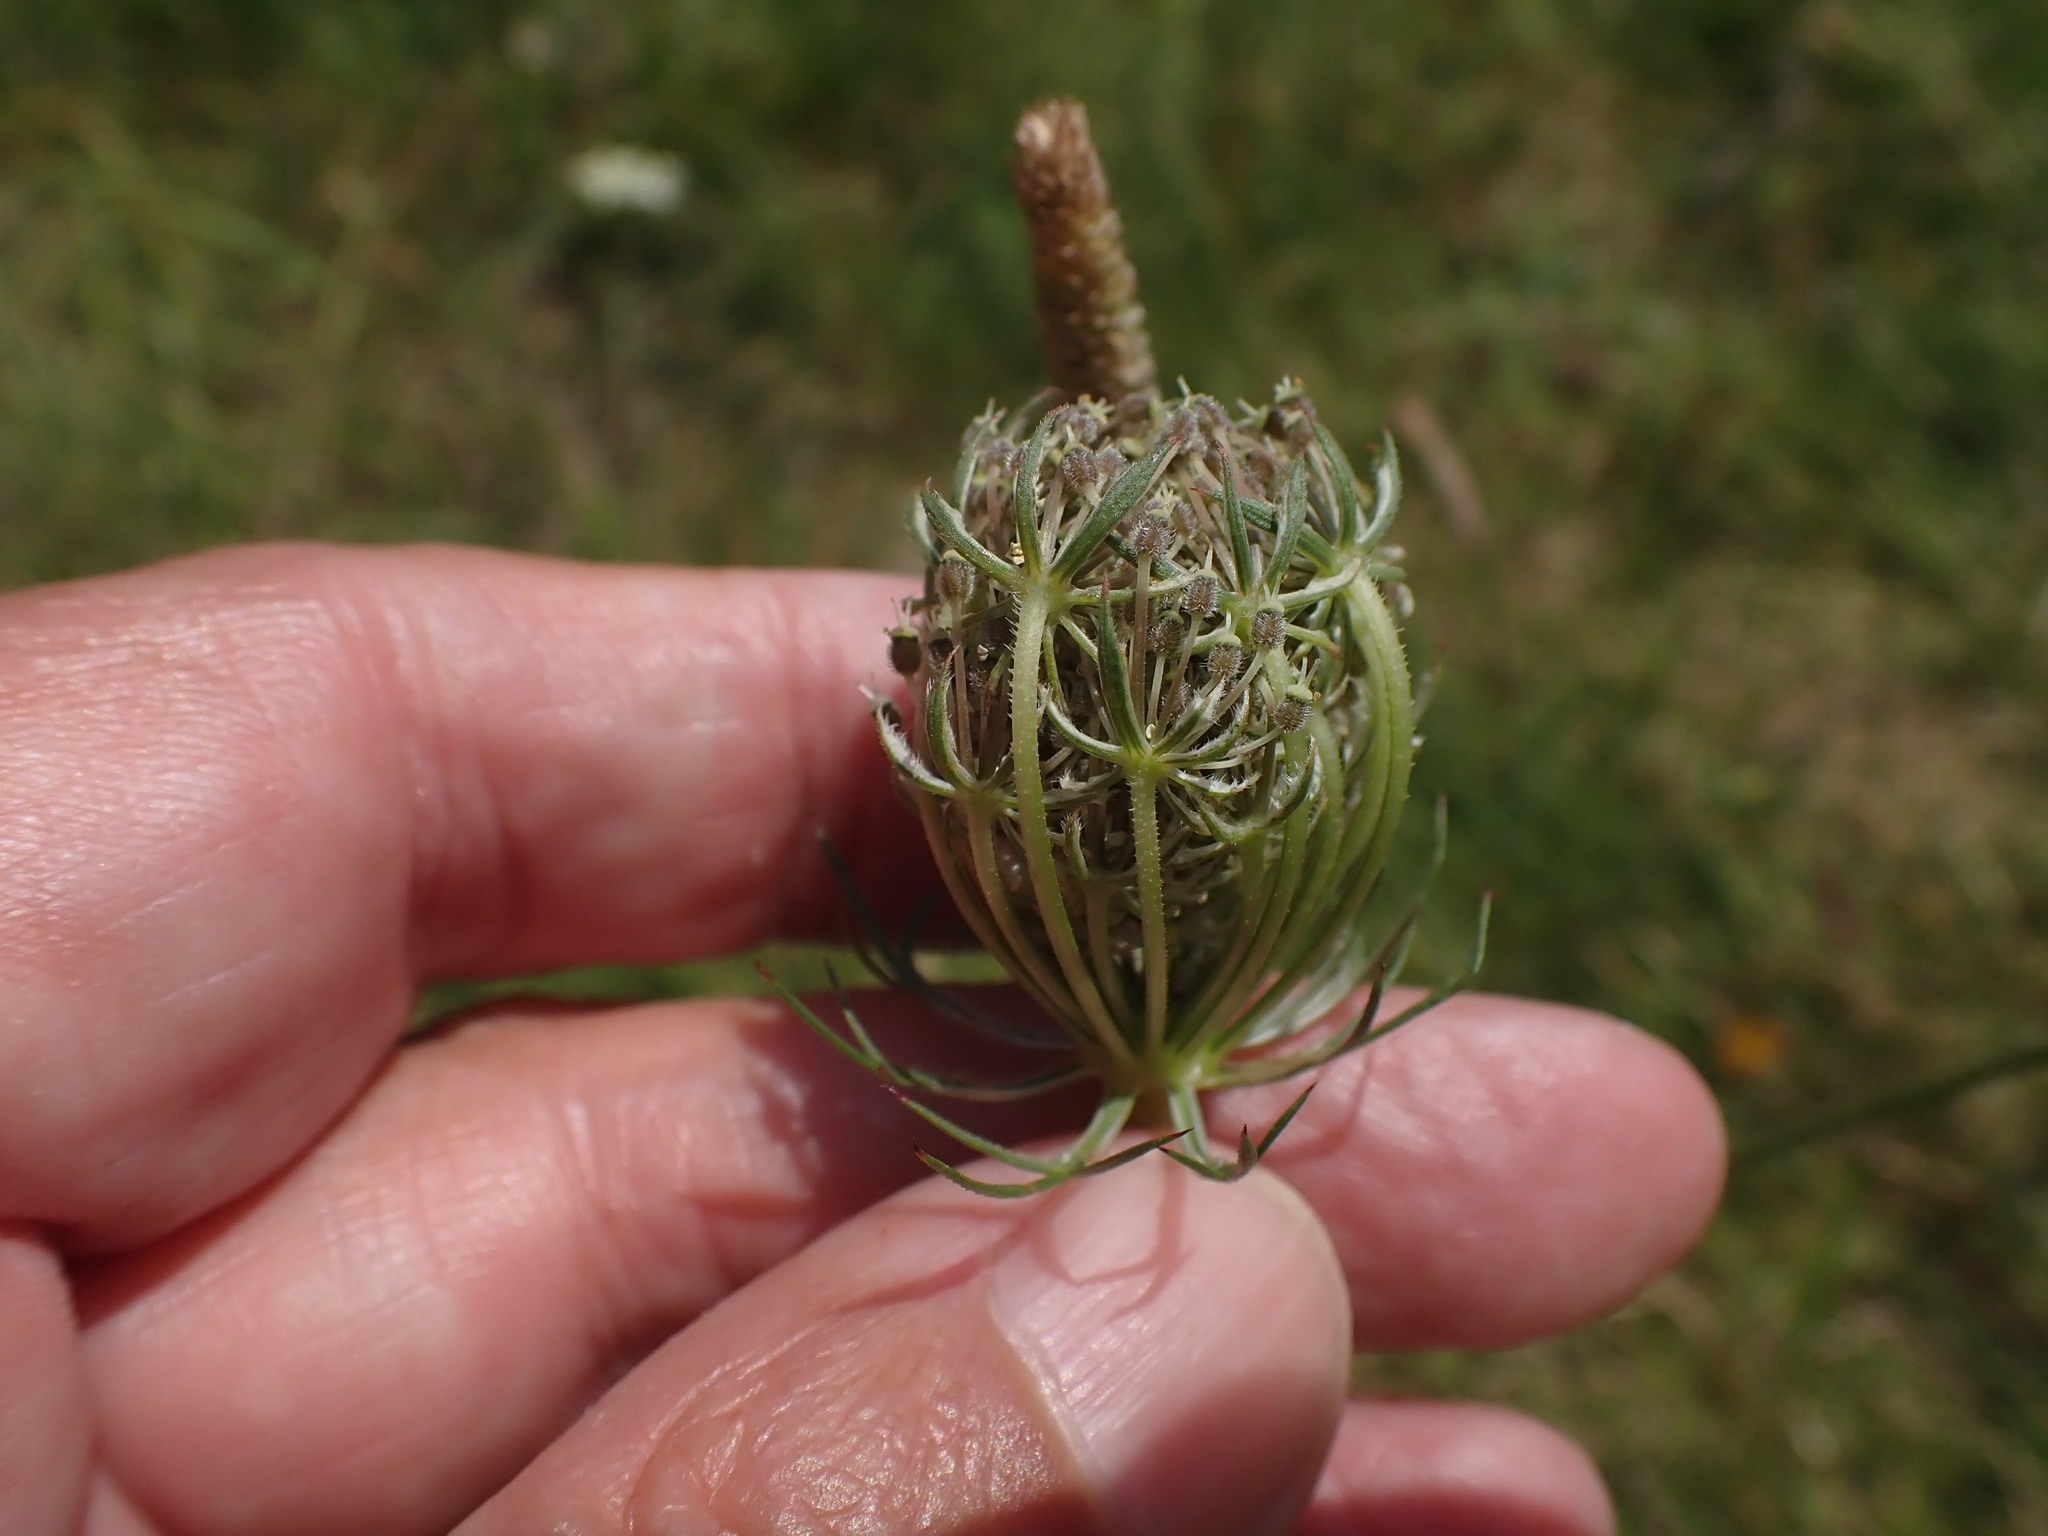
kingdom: Plantae
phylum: Tracheophyta
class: Magnoliopsida
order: Apiales
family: Apiaceae
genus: Daucus
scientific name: Daucus carota
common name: Wild carrot
